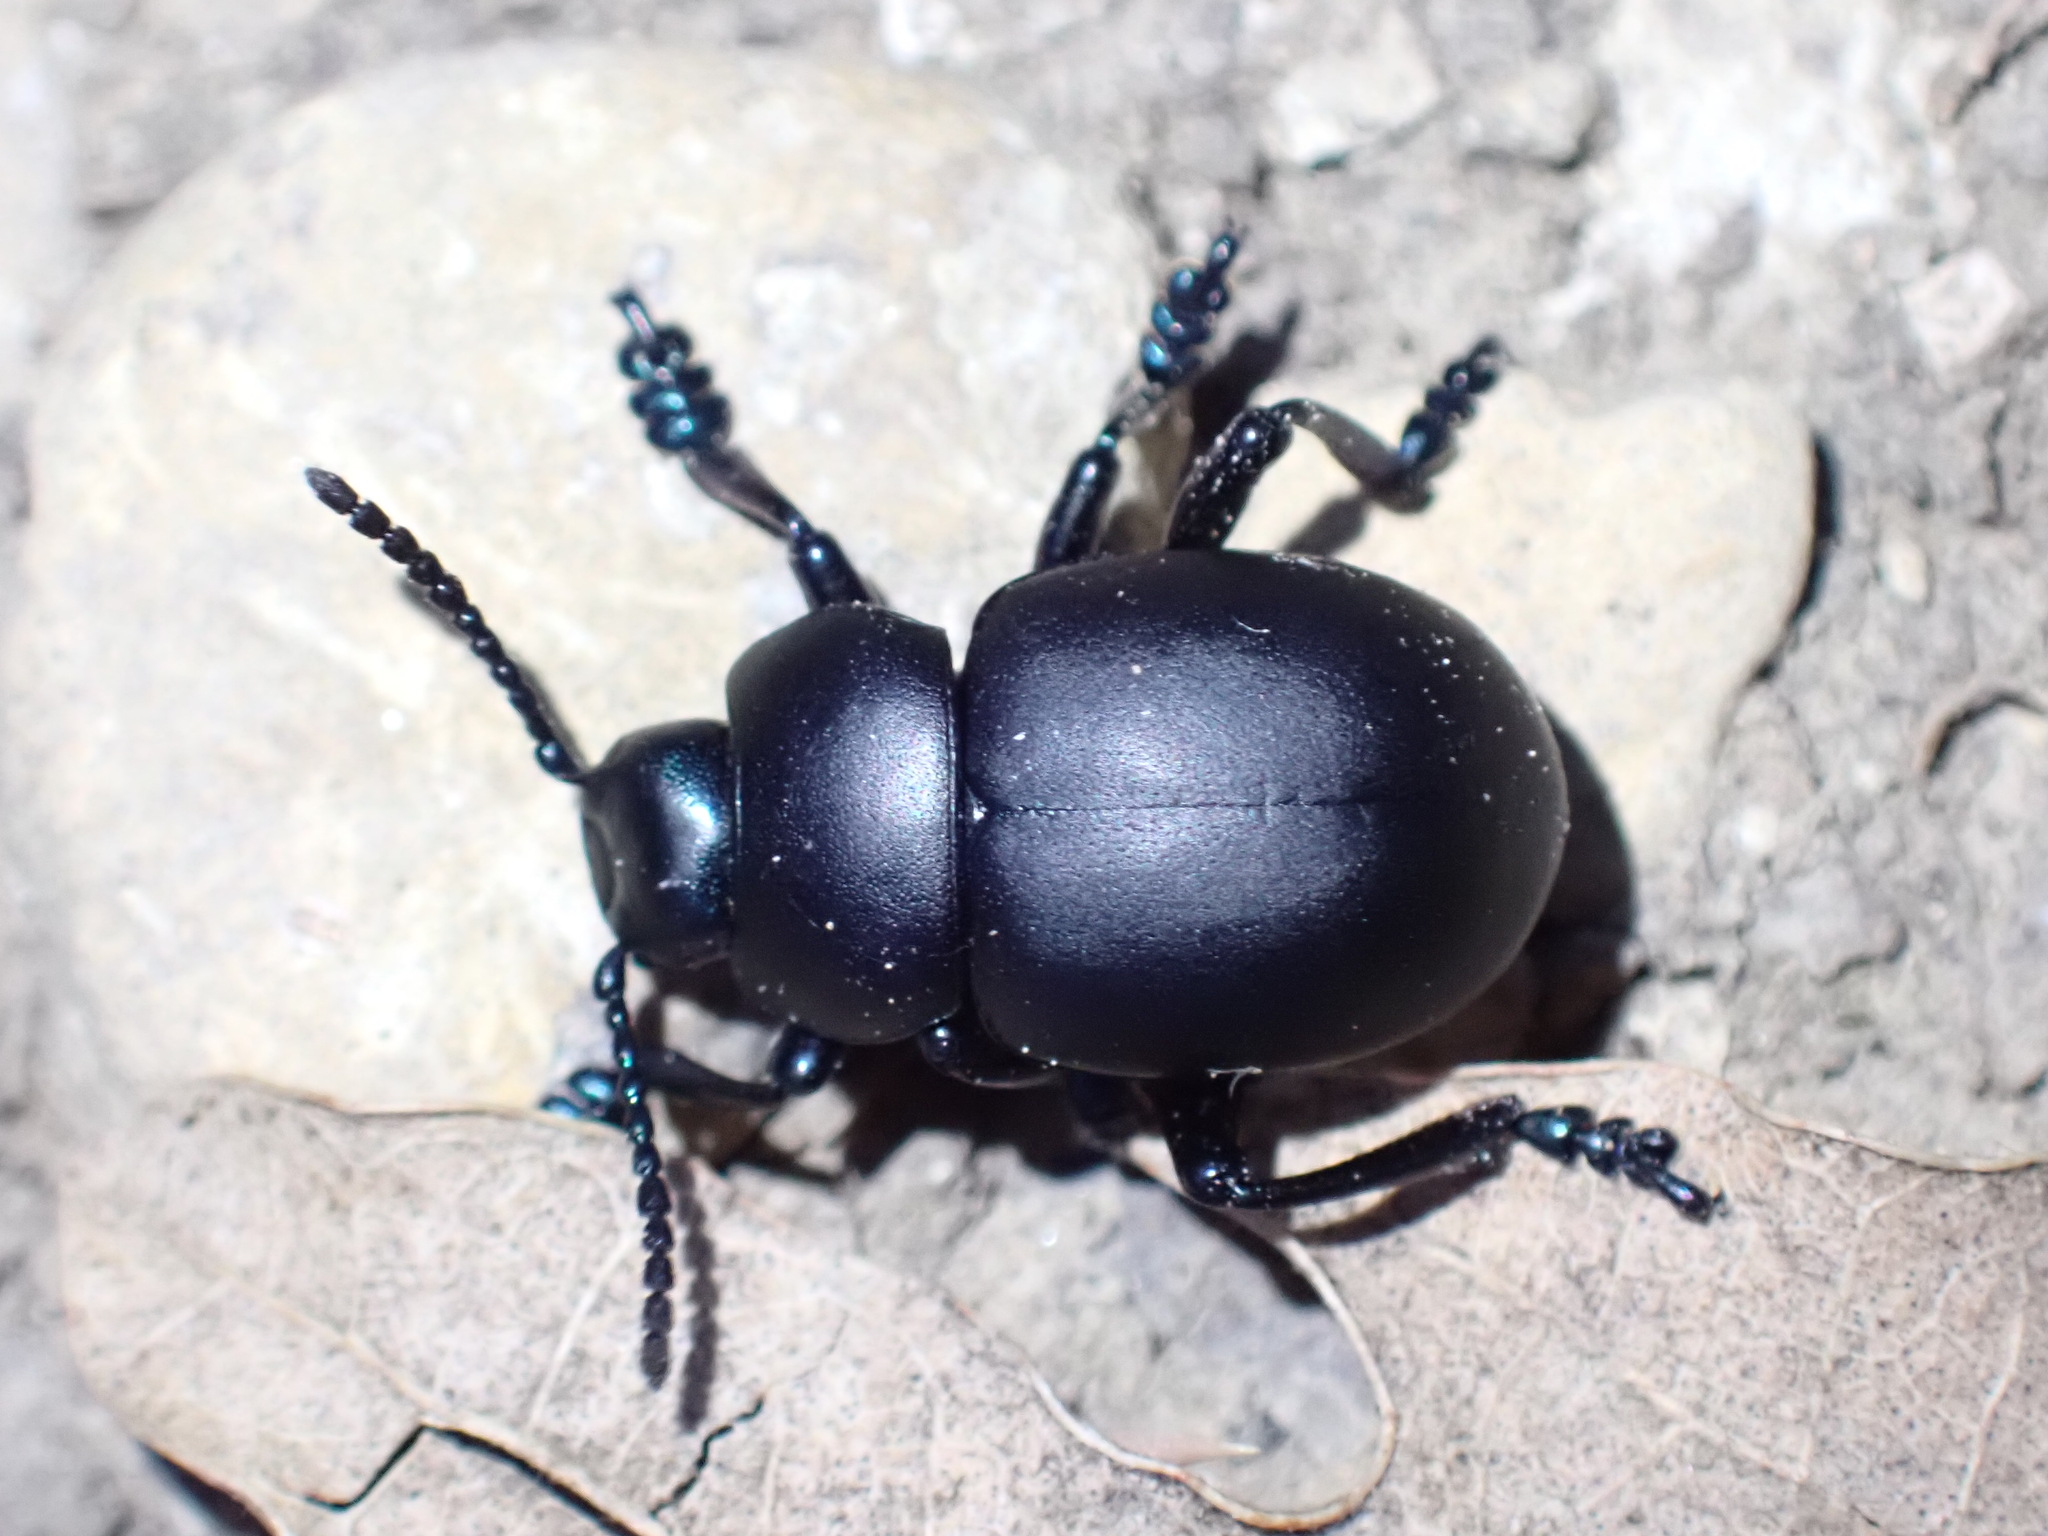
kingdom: Animalia
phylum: Arthropoda
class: Insecta
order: Coleoptera
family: Chrysomelidae
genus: Timarcha
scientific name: Timarcha nicaeensis
